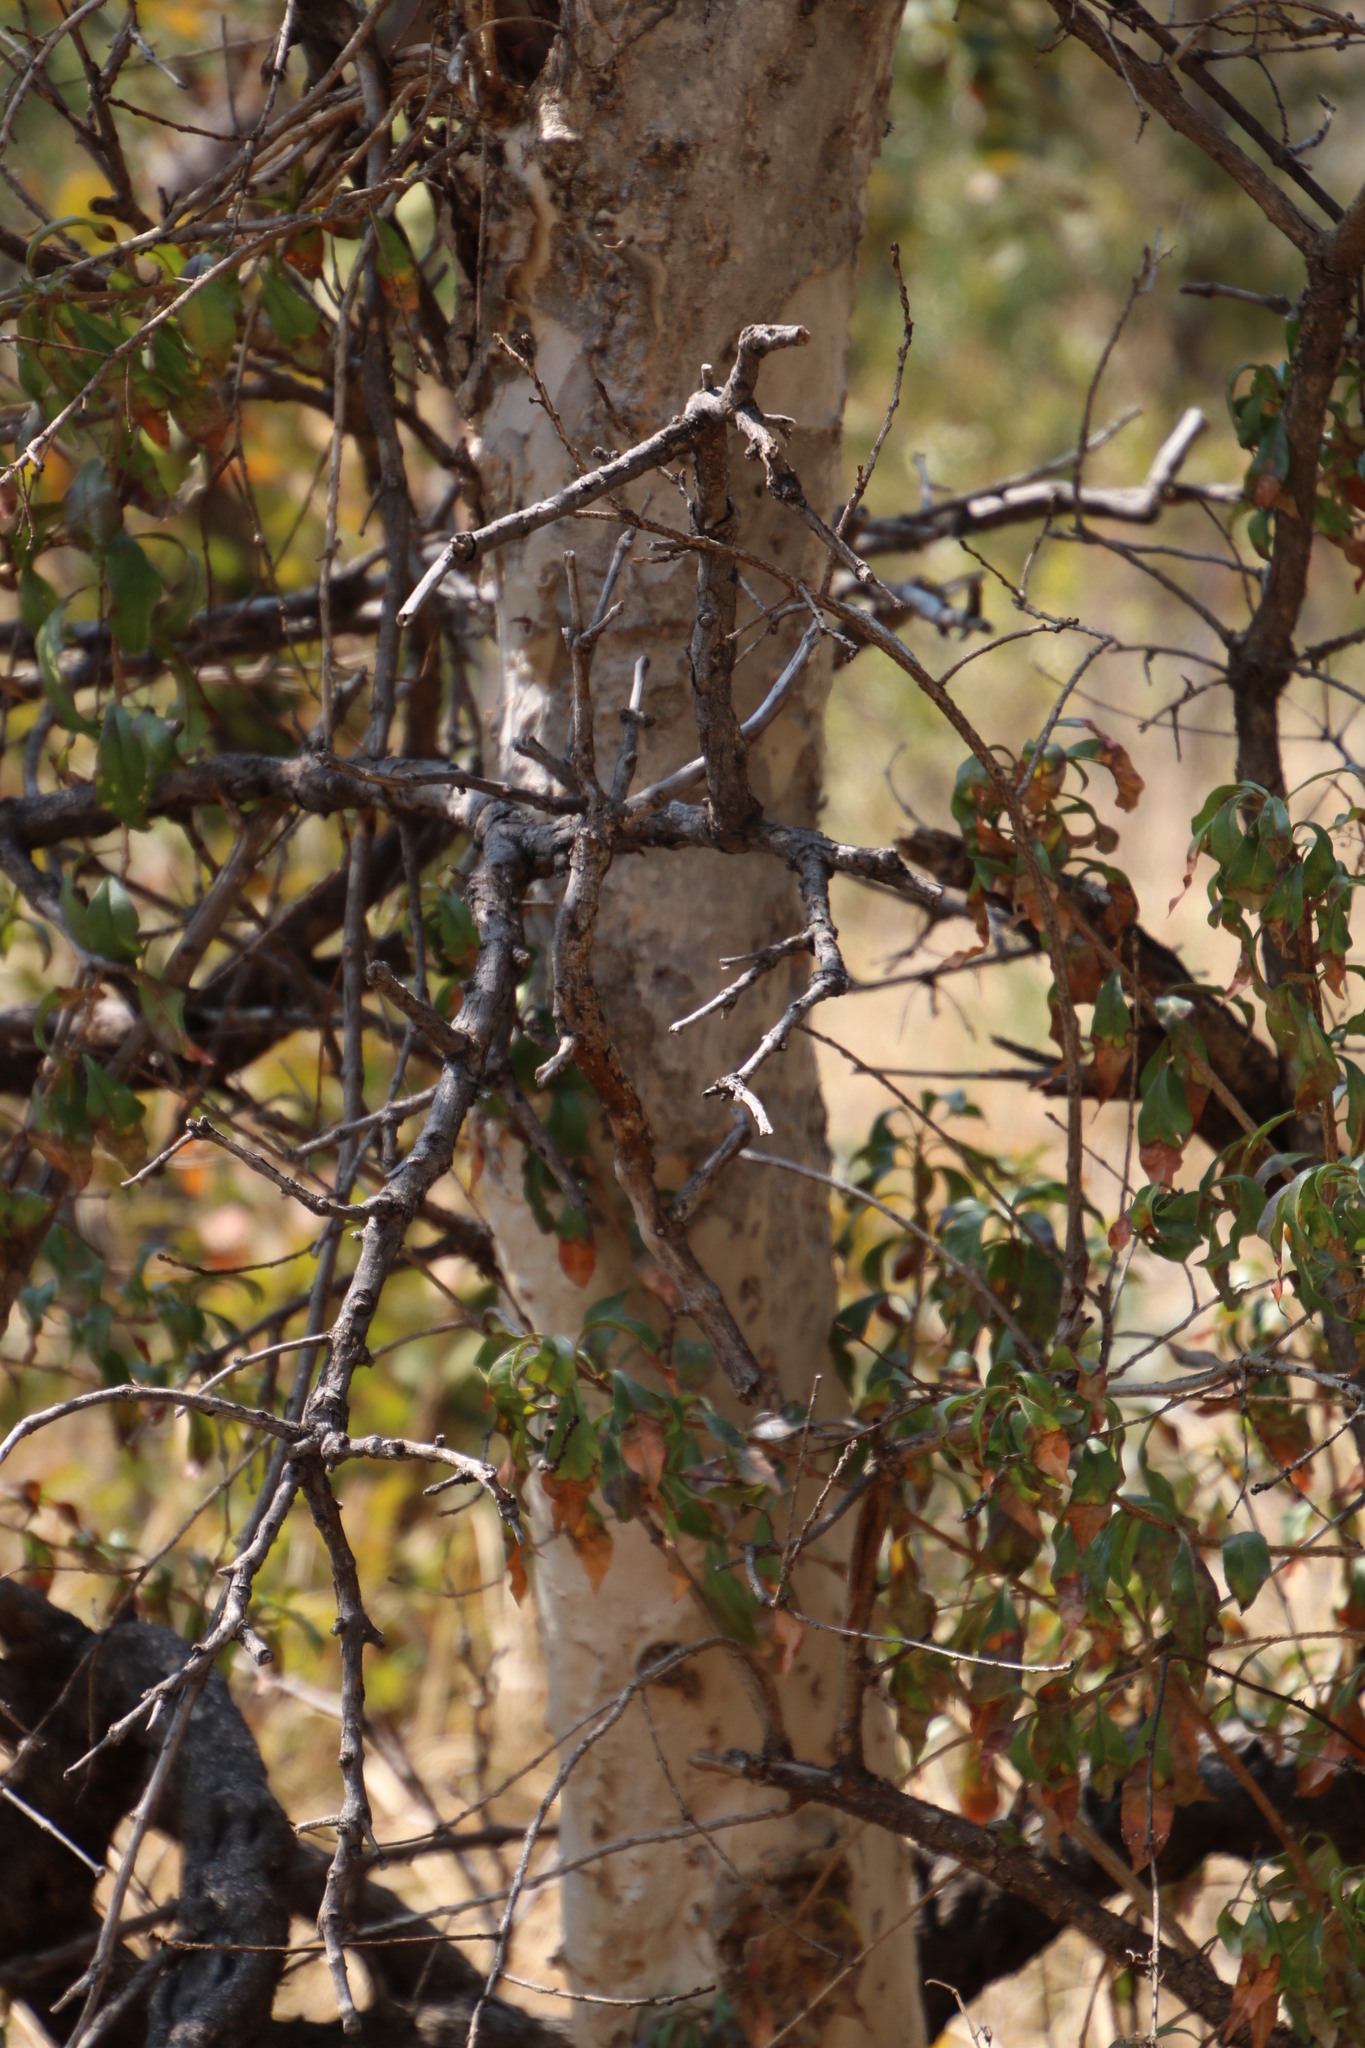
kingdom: Plantae
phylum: Tracheophyta
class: Magnoliopsida
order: Myrtales
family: Myrtaceae
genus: Heteropyxis
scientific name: Heteropyxis natalensis
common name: Lavender tree
